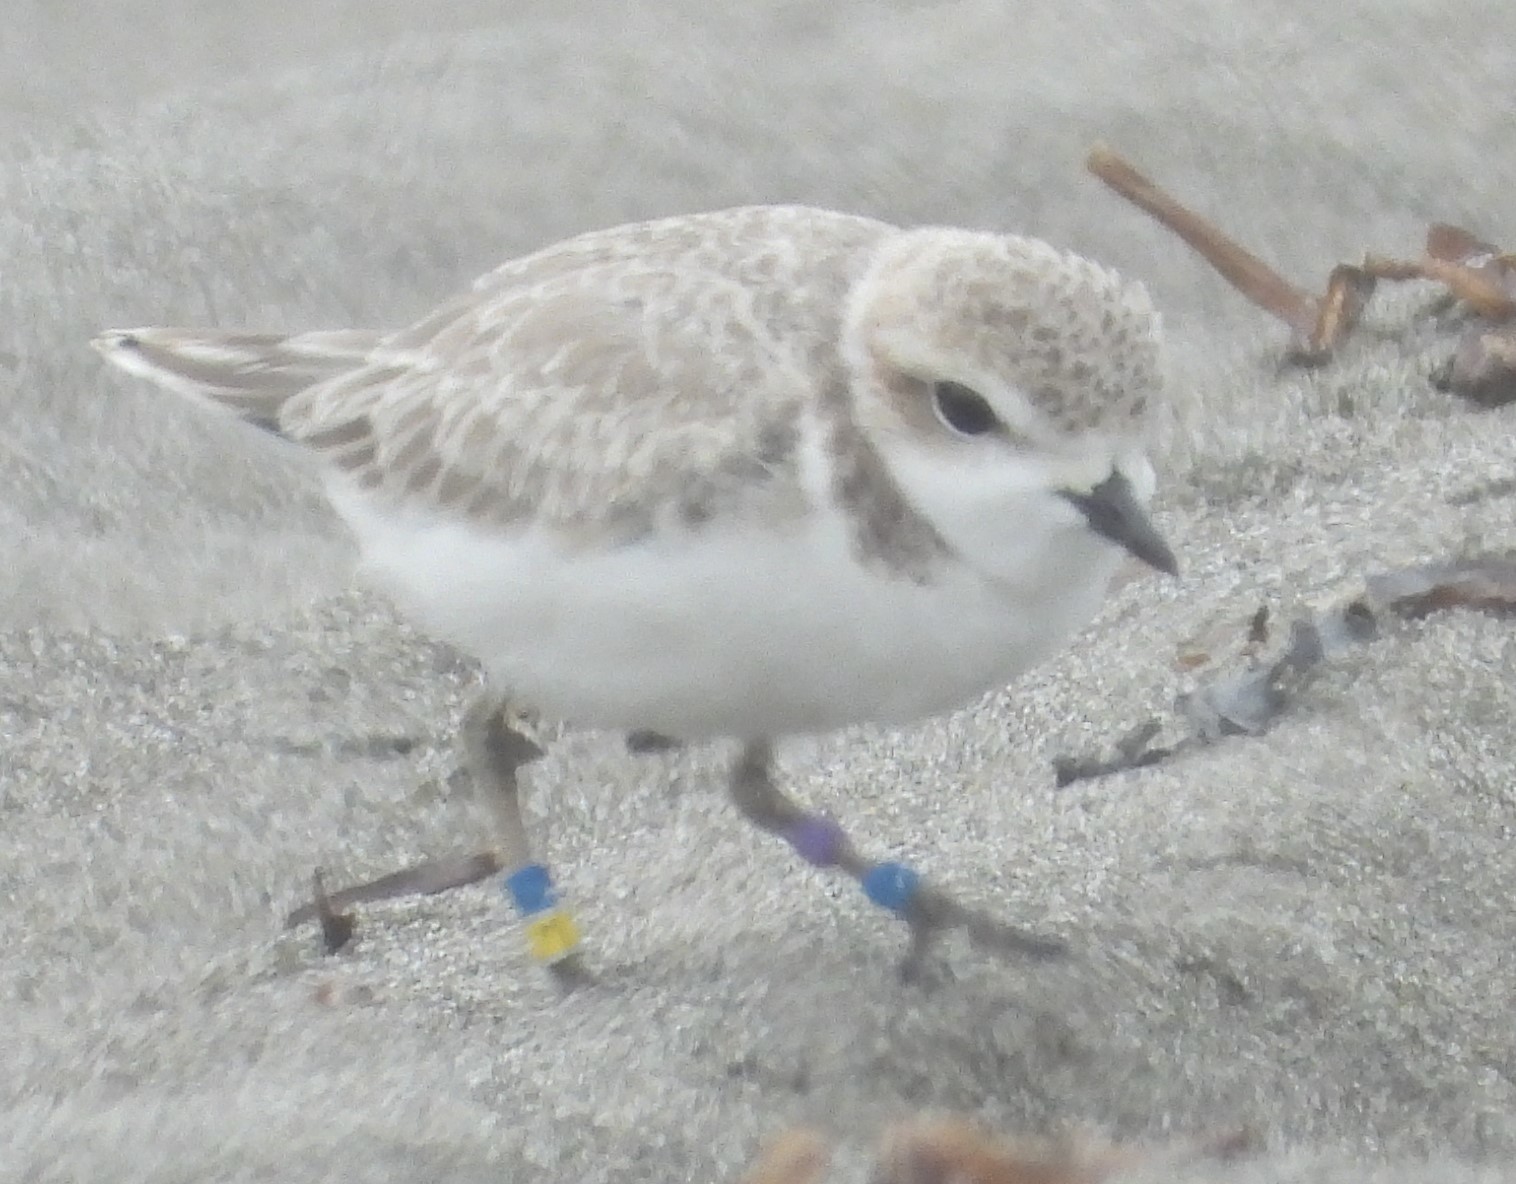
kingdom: Animalia
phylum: Chordata
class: Aves
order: Charadriiformes
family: Charadriidae
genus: Anarhynchus
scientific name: Anarhynchus
